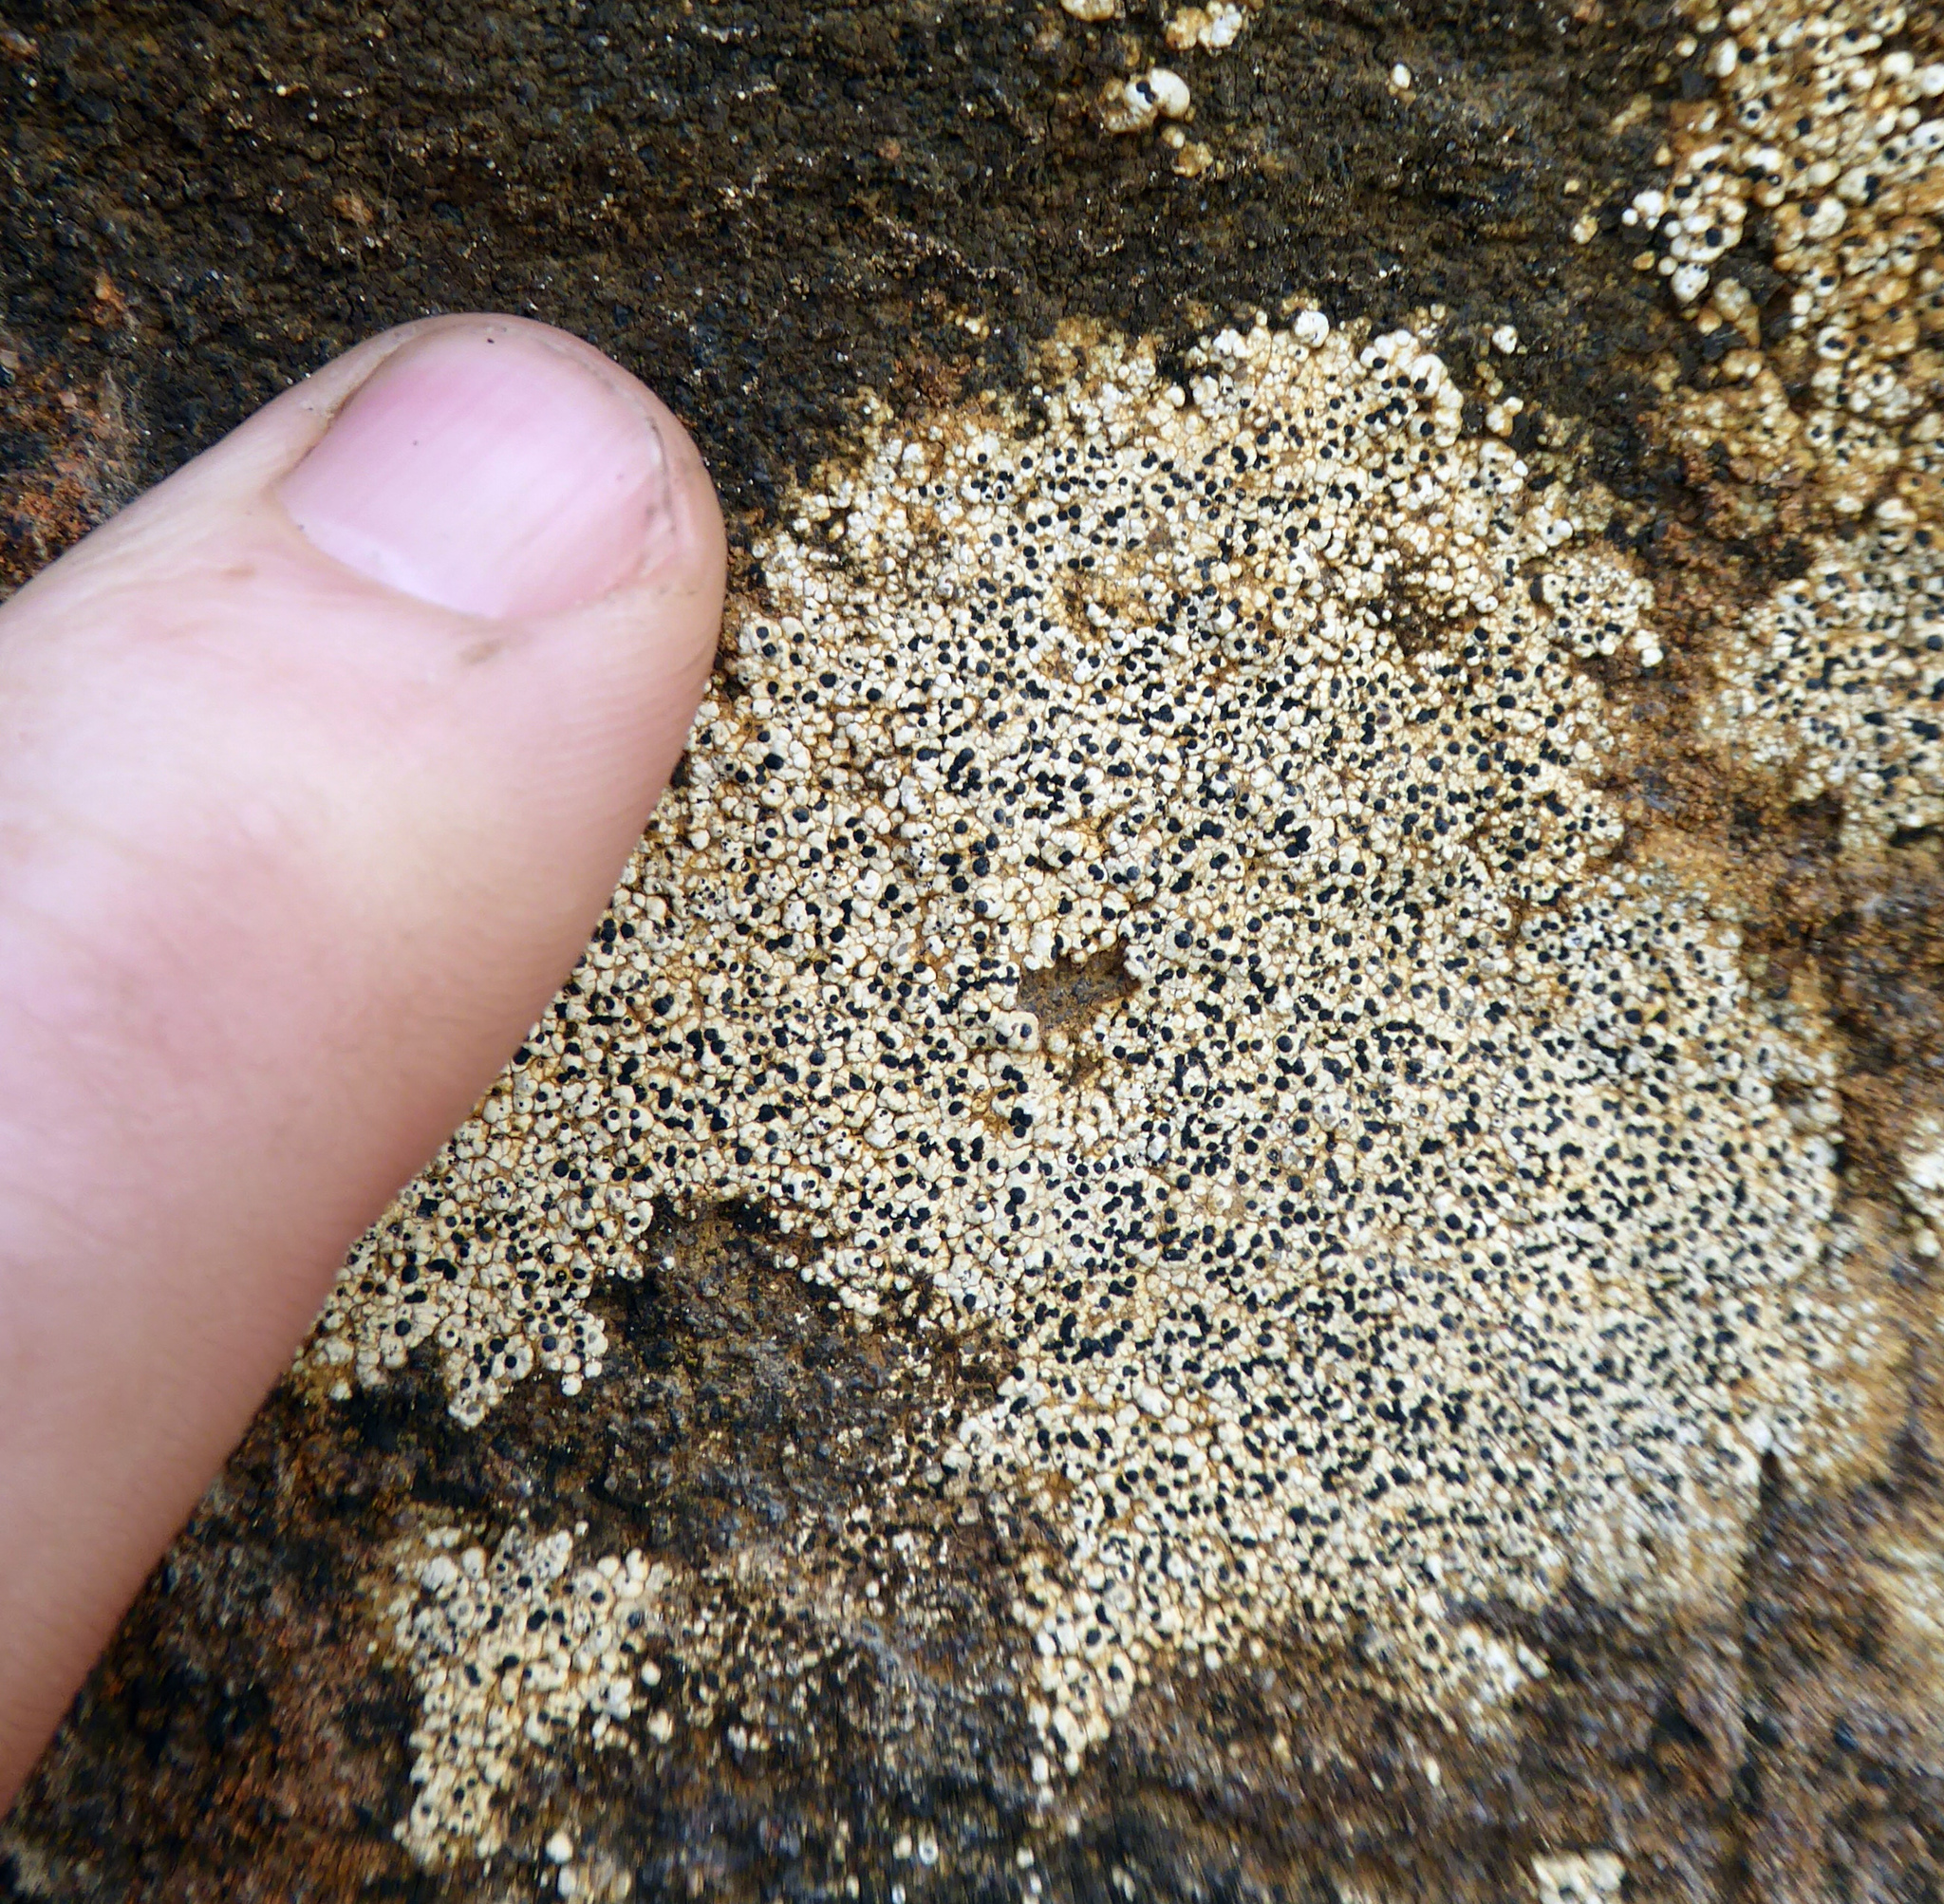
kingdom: Fungi
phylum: Ascomycota
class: Lecanoromycetes
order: Caliciales
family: Caliciaceae
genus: Buellia
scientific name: Buellia
